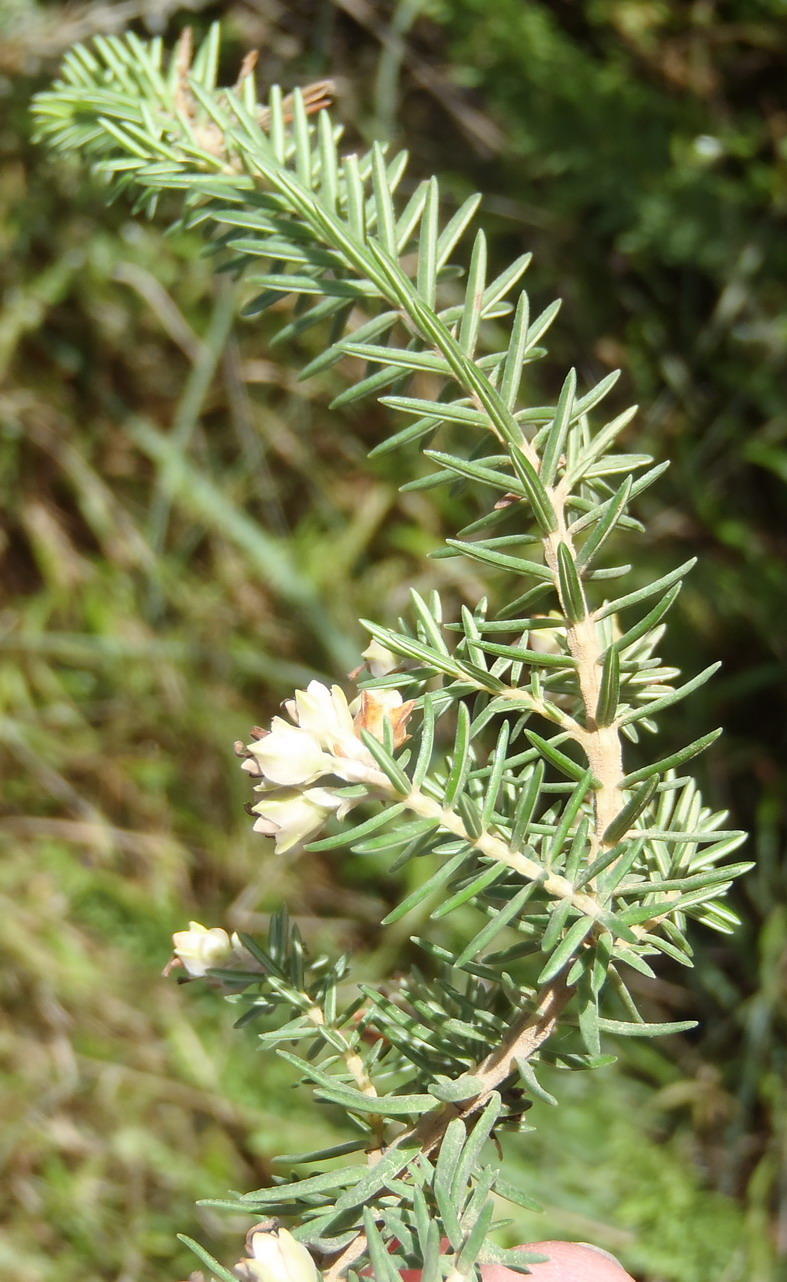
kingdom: Plantae
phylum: Tracheophyta
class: Magnoliopsida
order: Ericales
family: Ericaceae
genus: Erica
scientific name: Erica brownleeae
